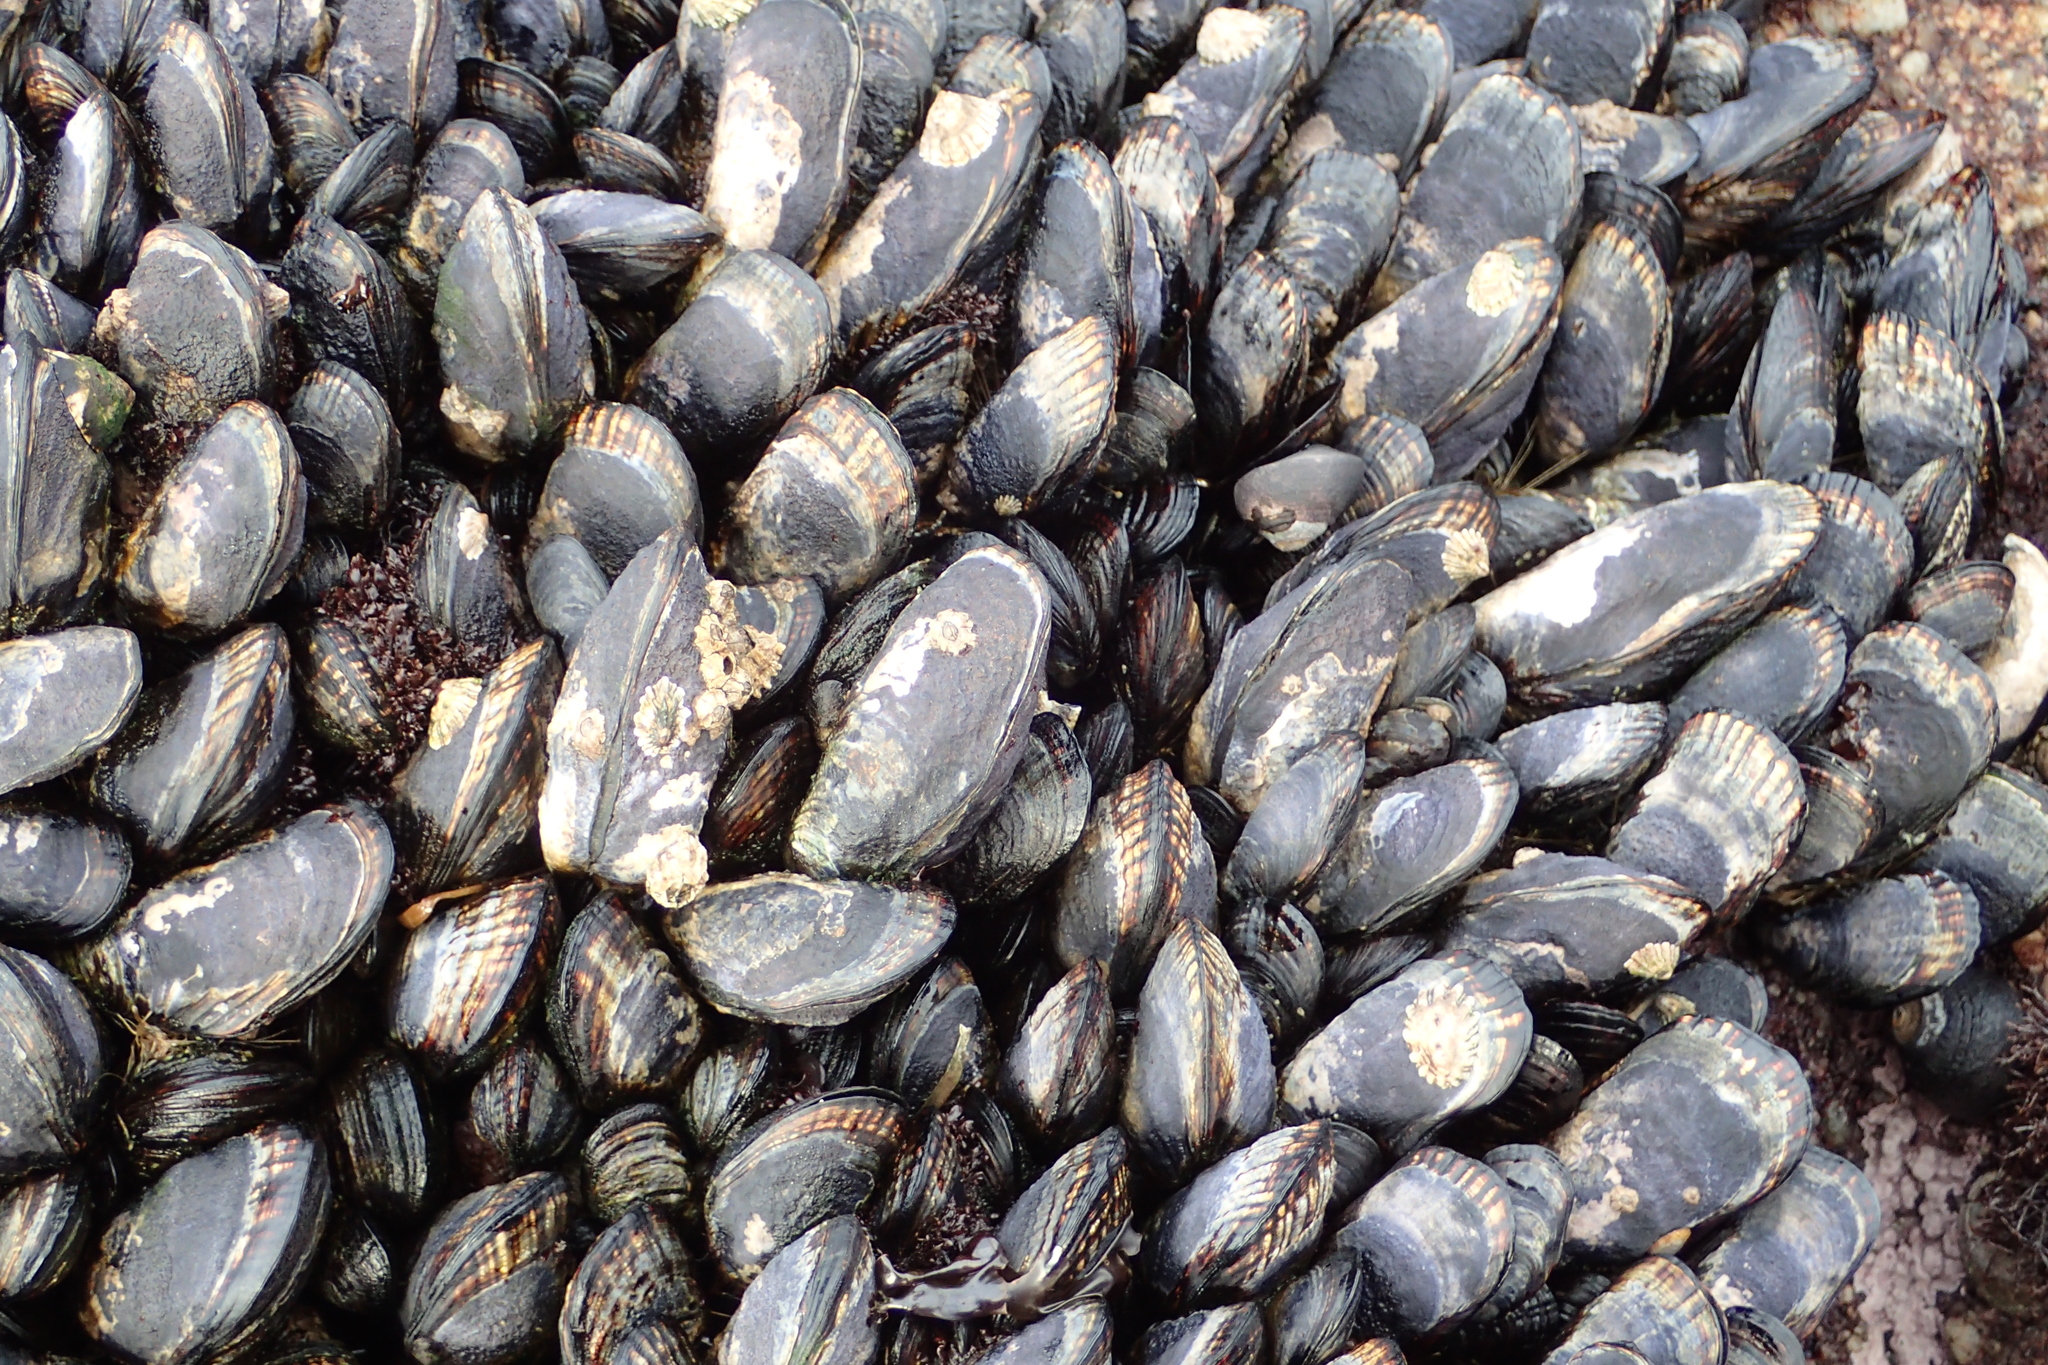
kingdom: Animalia
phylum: Mollusca
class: Bivalvia
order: Mytilida
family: Mytilidae
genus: Mytilus
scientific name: Mytilus californianus
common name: California mussel
